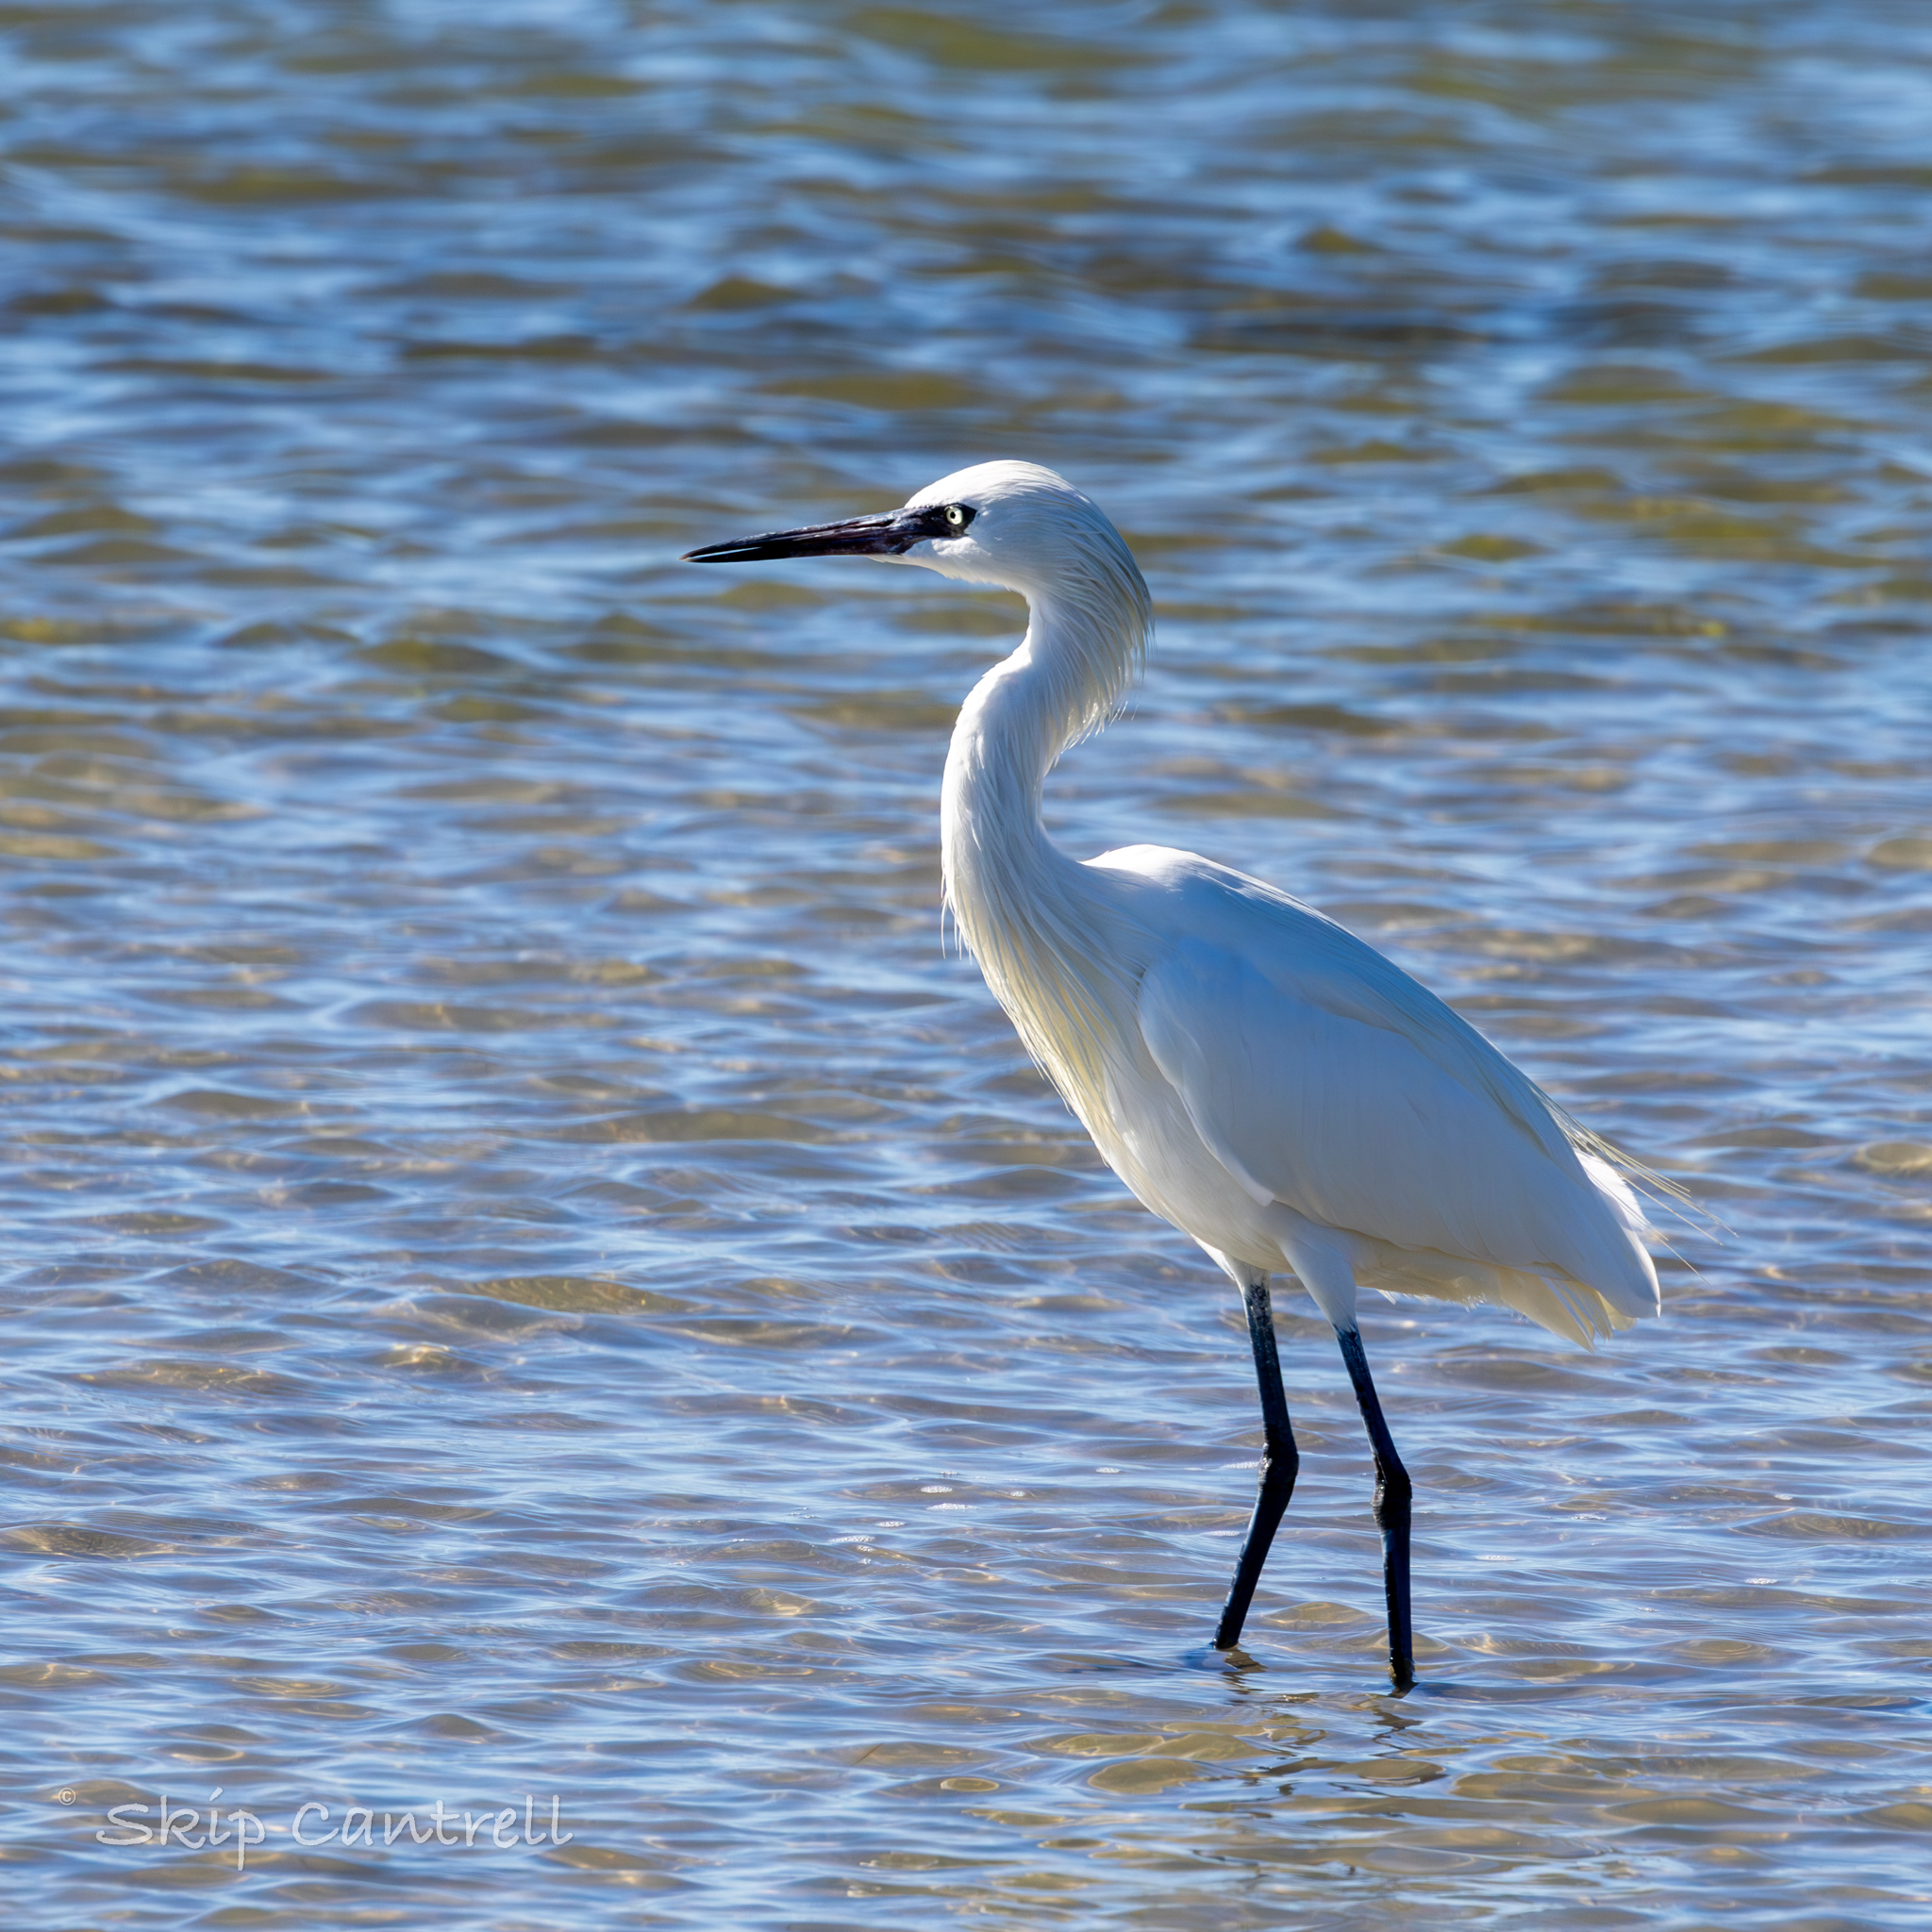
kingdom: Animalia
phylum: Chordata
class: Aves
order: Pelecaniformes
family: Ardeidae
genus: Egretta
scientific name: Egretta rufescens
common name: Reddish egret
